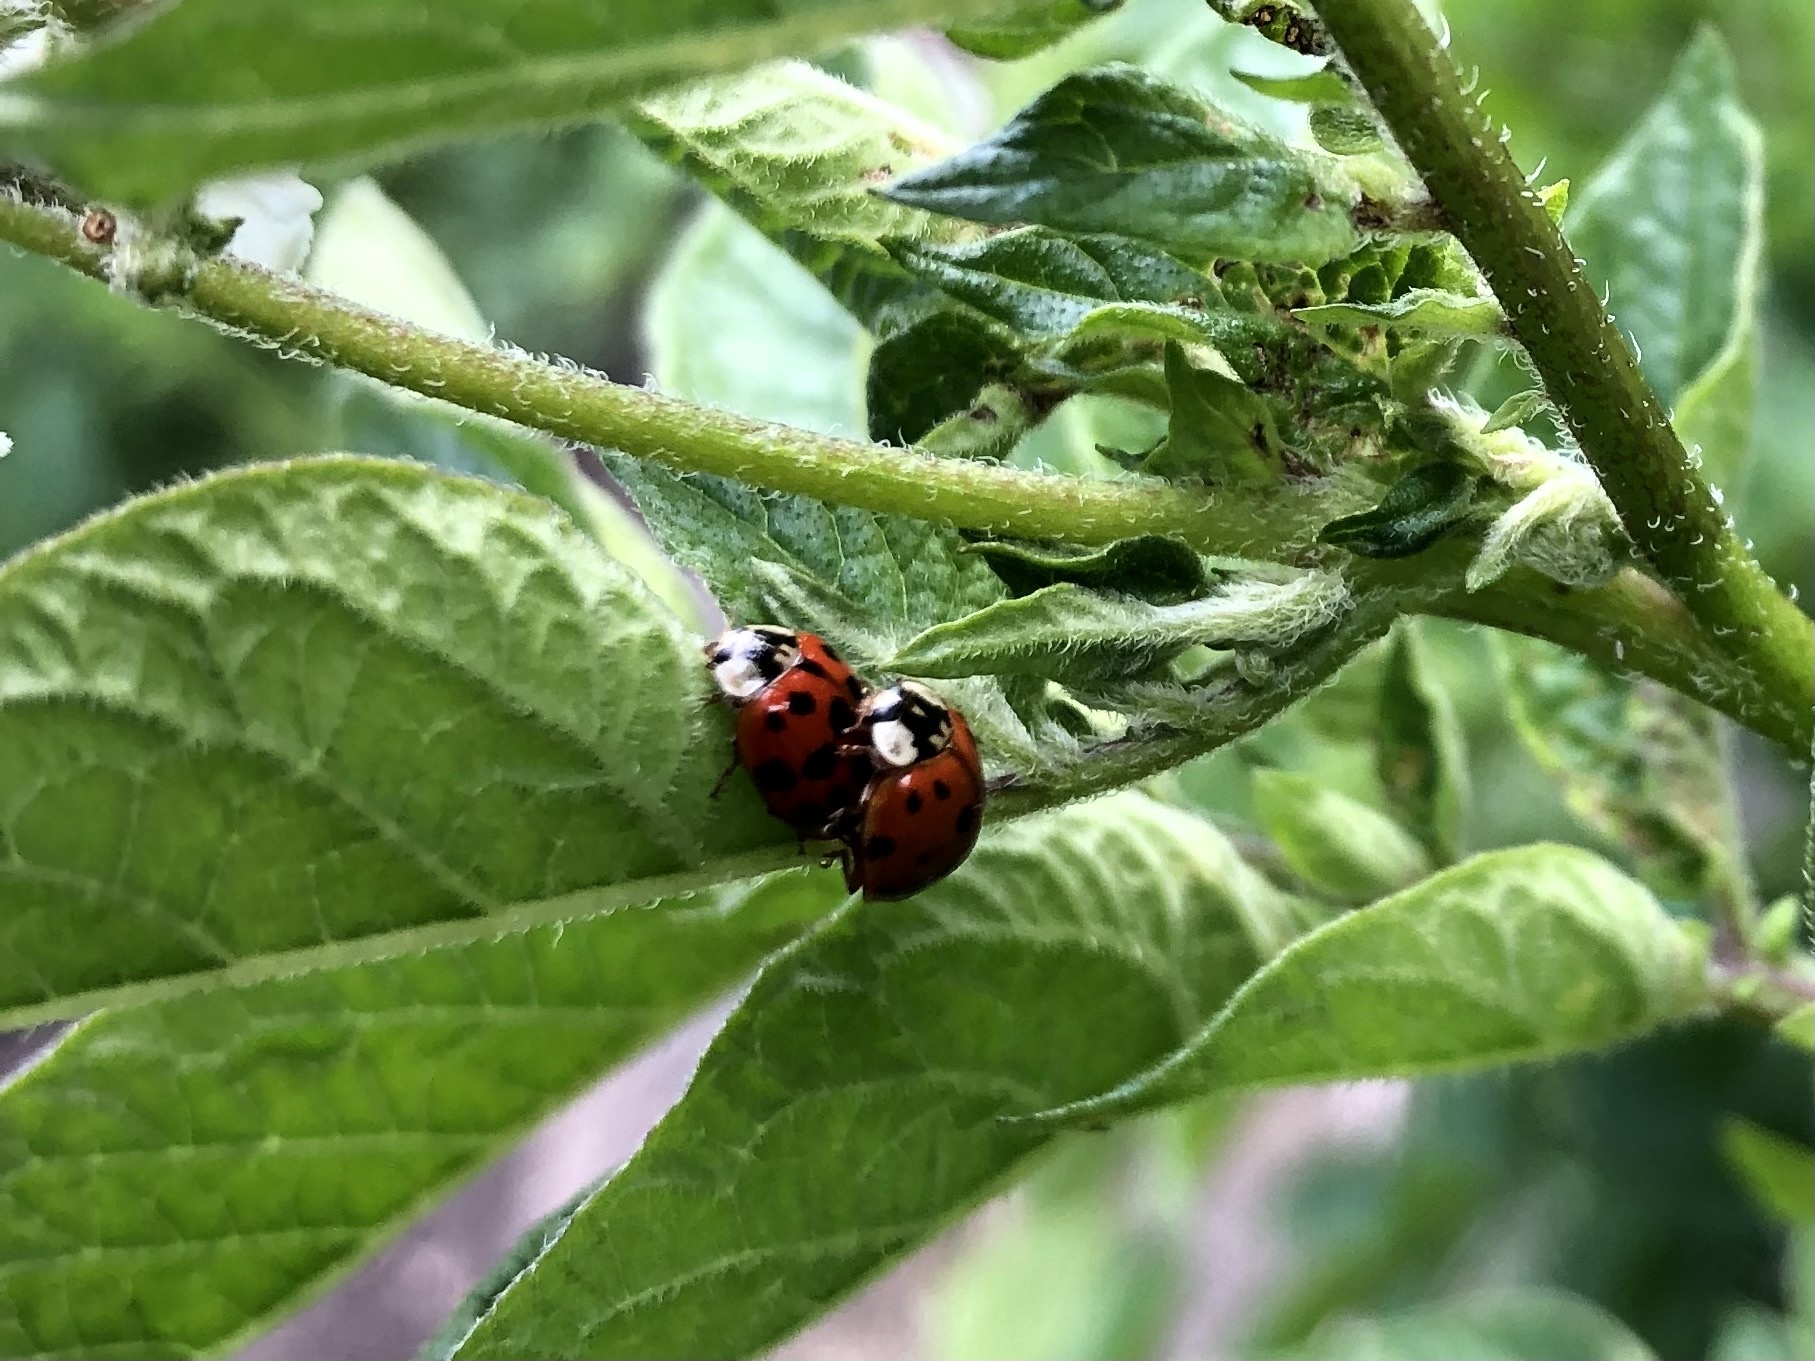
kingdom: Animalia
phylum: Arthropoda
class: Insecta
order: Coleoptera
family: Coccinellidae
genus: Harmonia
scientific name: Harmonia axyridis
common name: Harlequin ladybird
